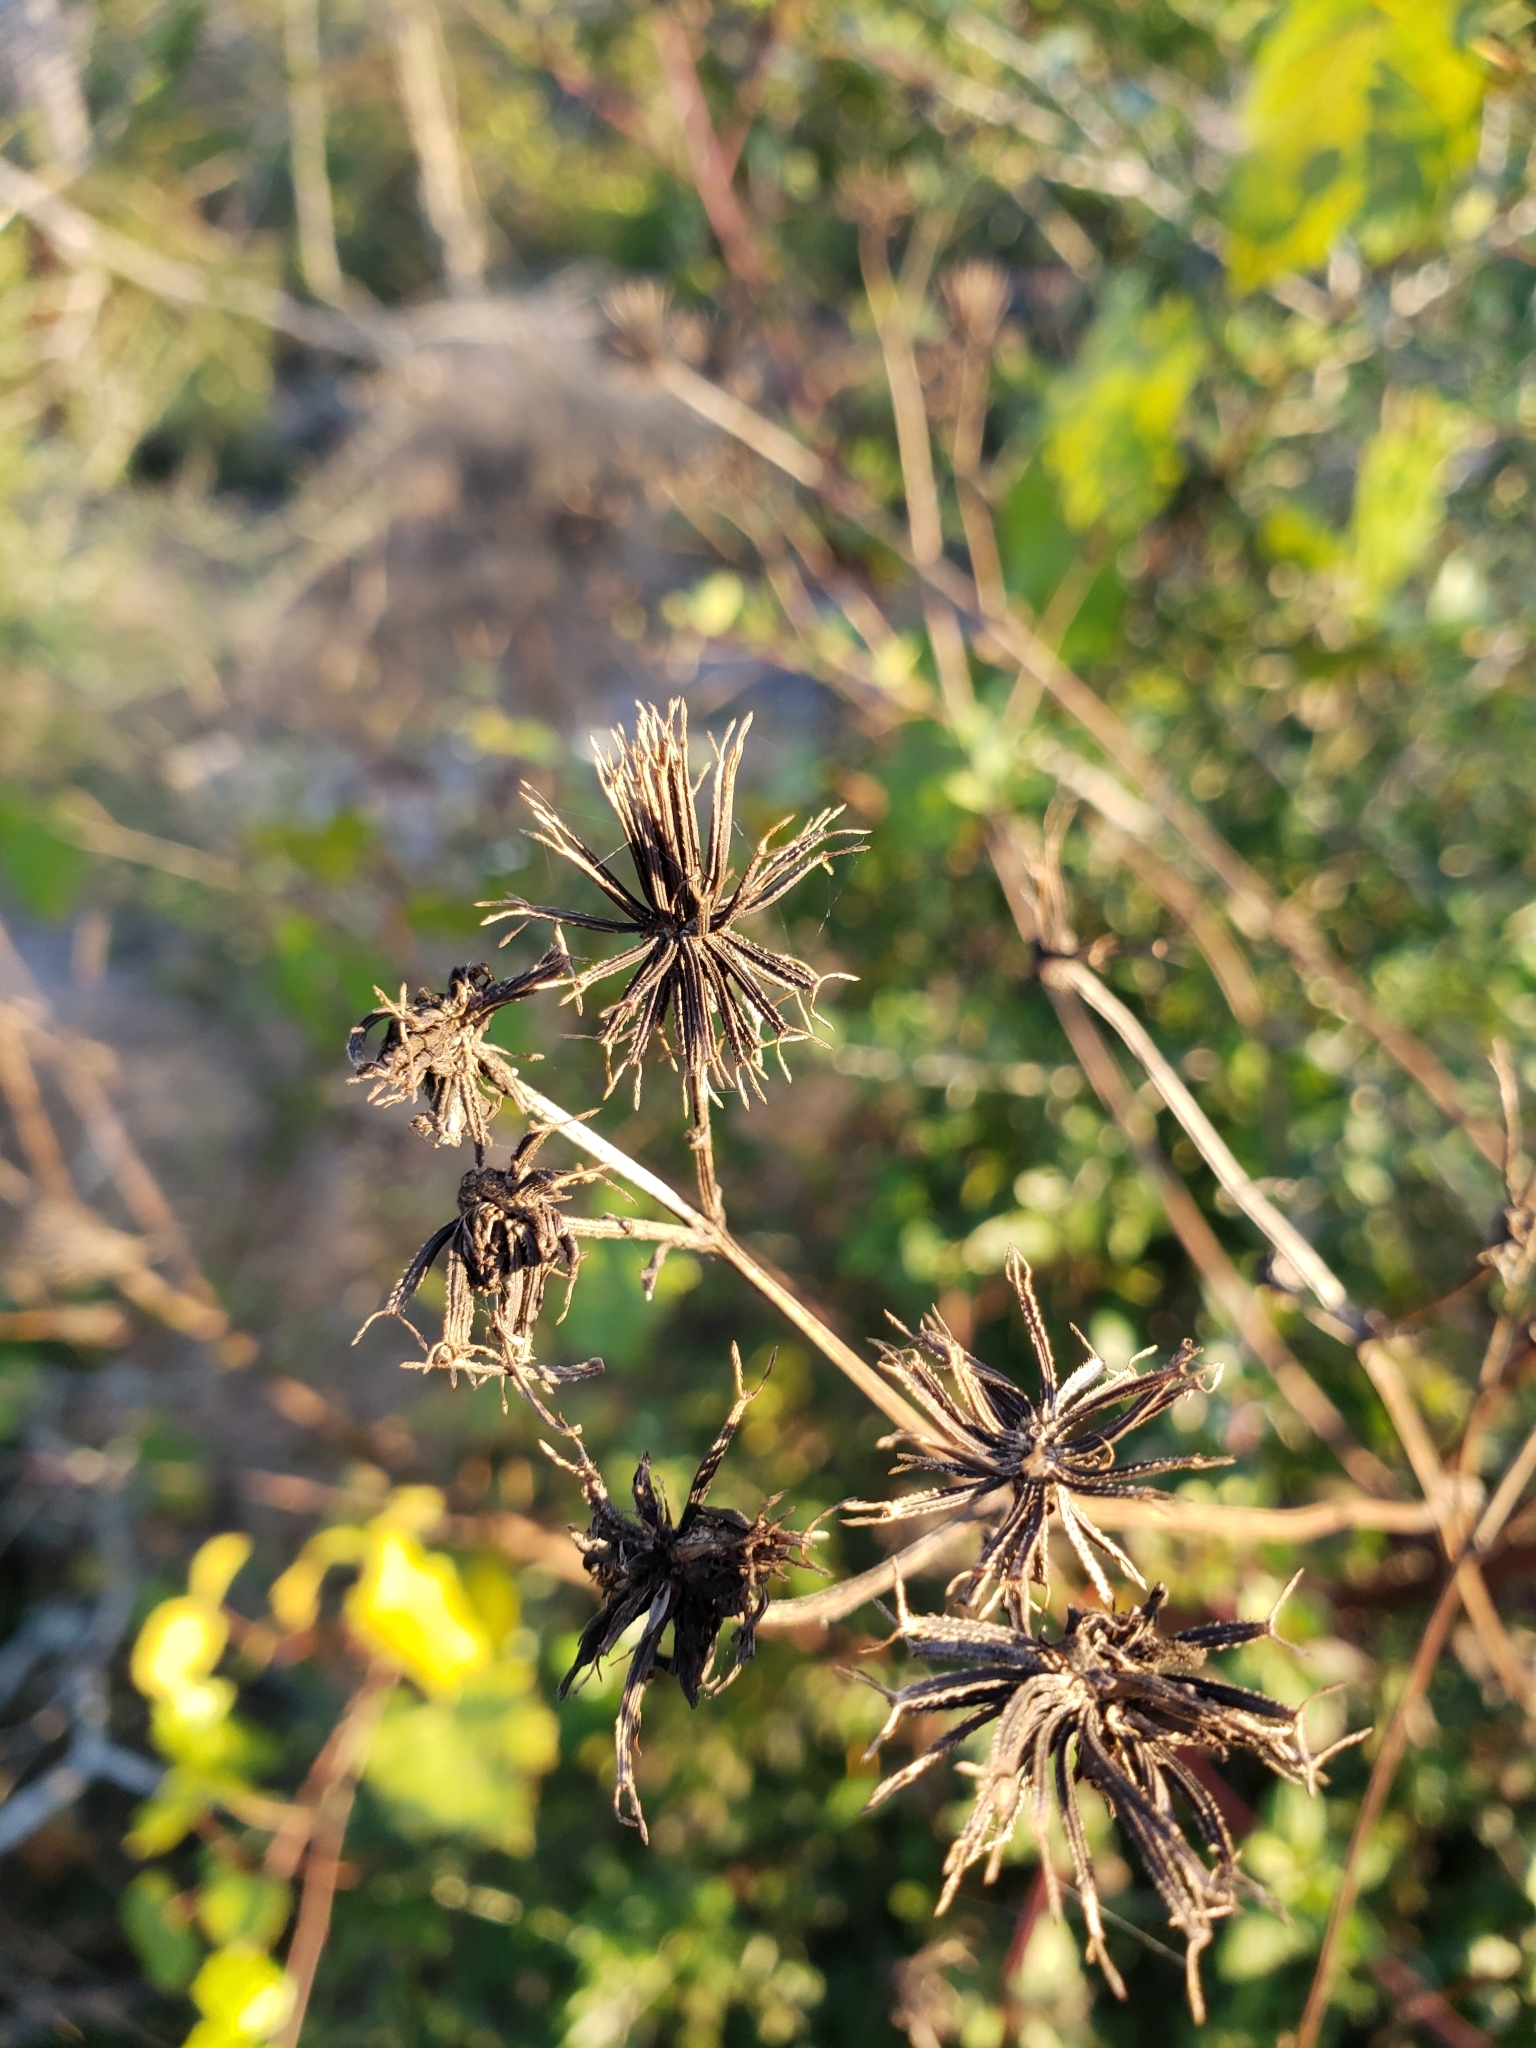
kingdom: Plantae
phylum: Tracheophyta
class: Magnoliopsida
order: Asterales
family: Asteraceae
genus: Bidens
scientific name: Bidens alba
